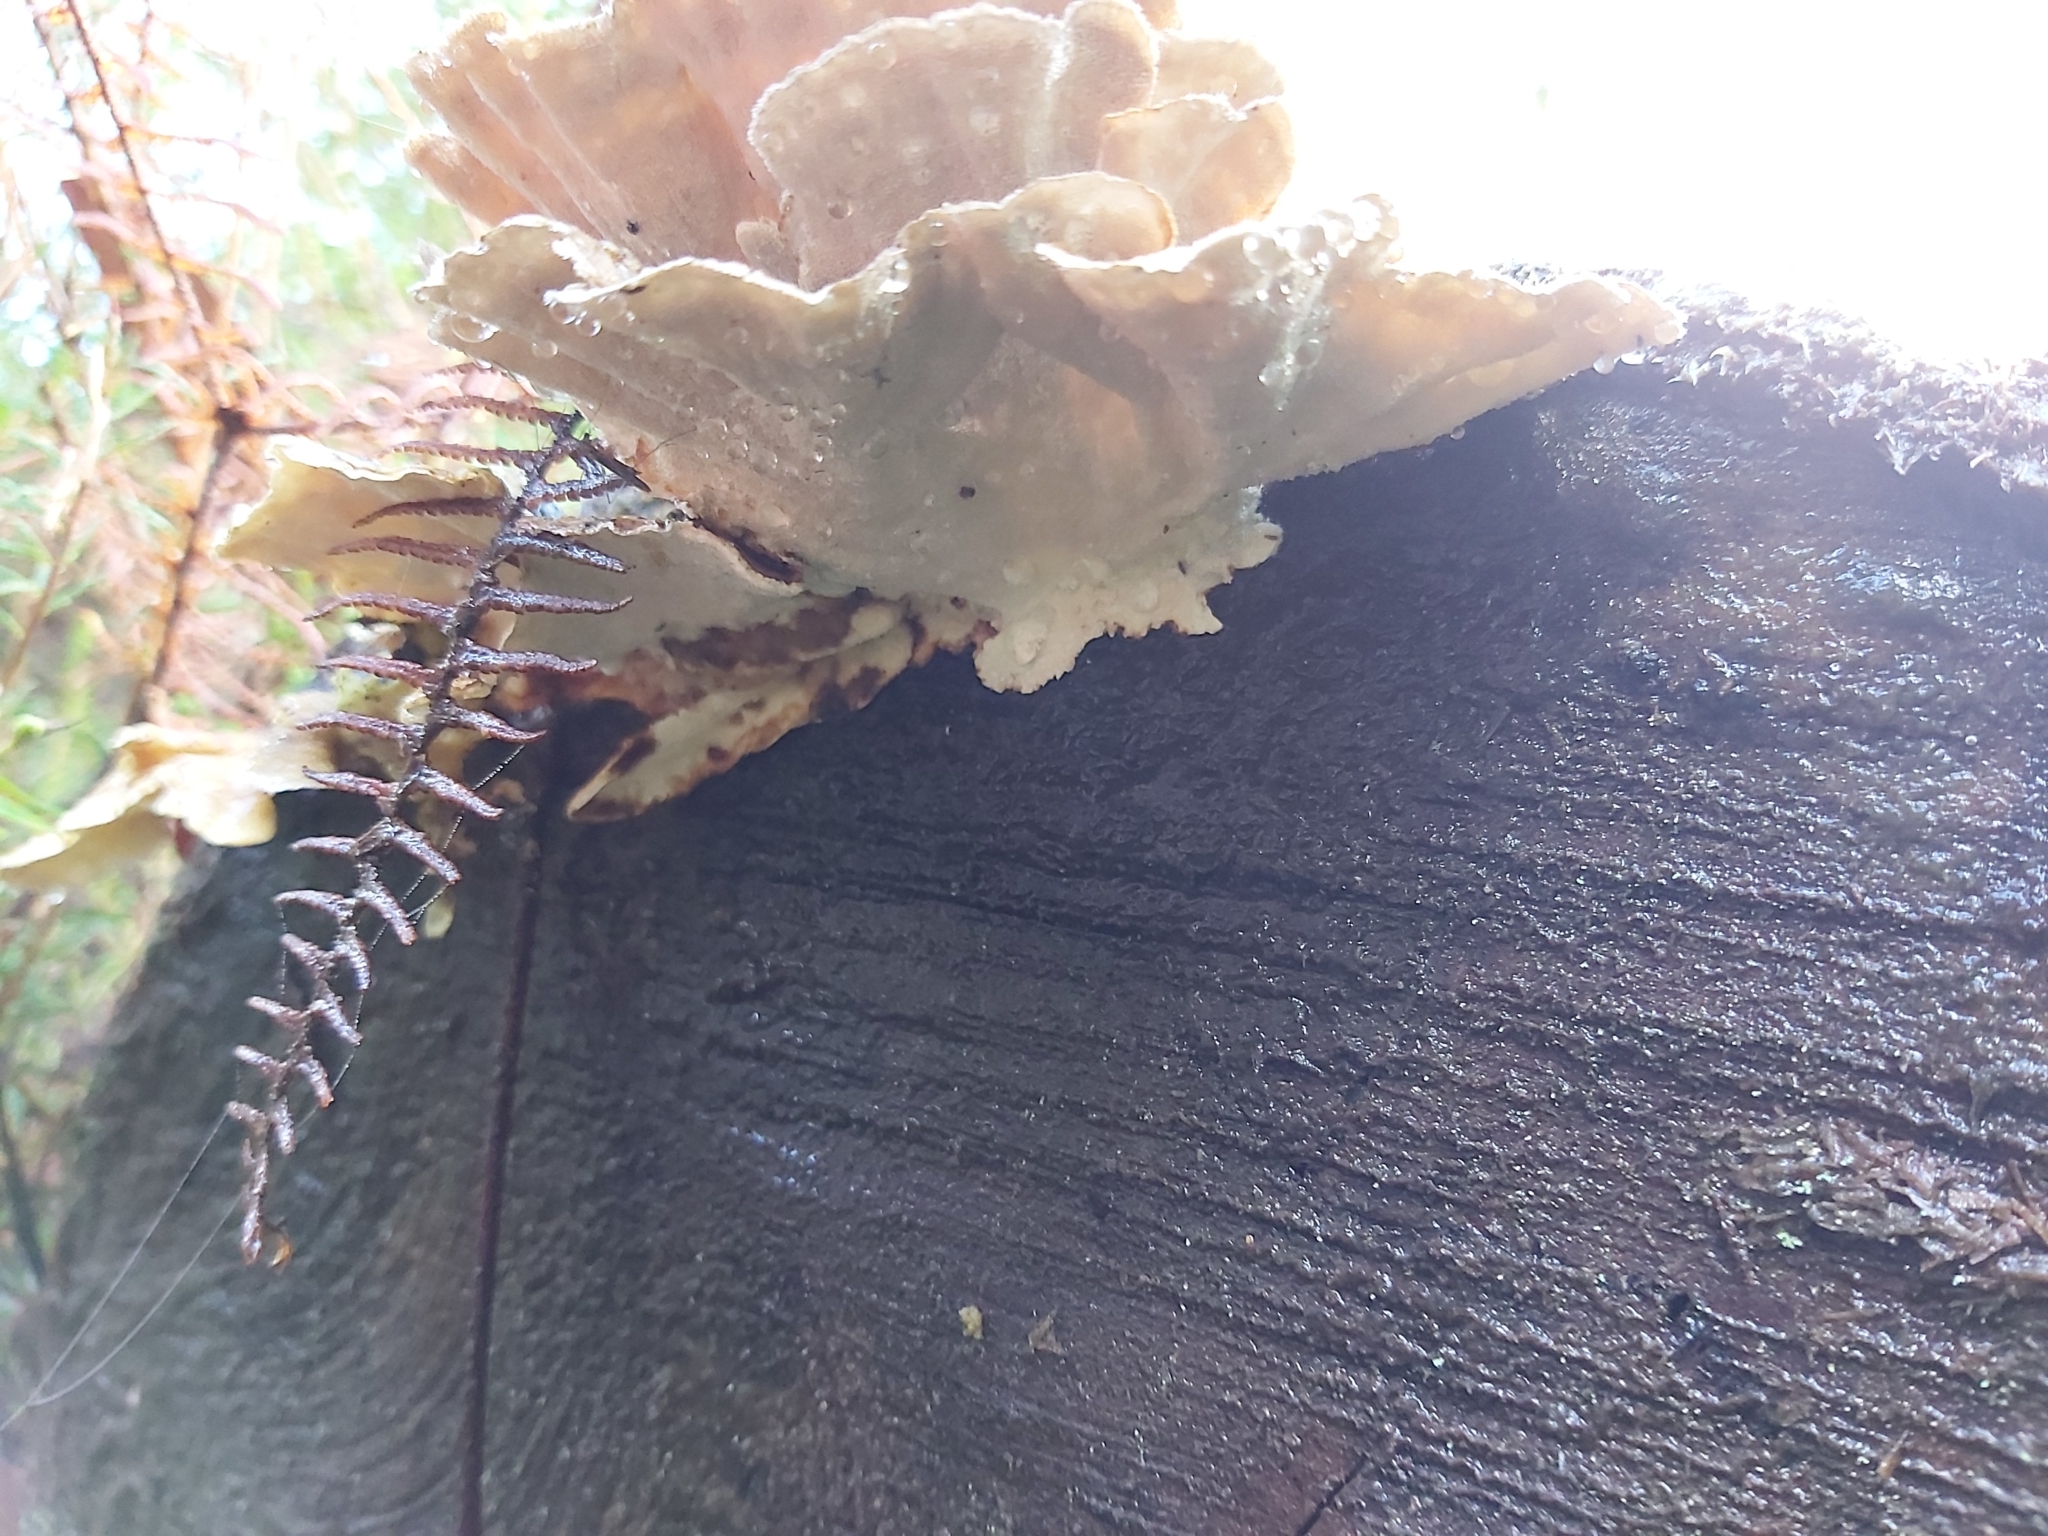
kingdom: Fungi
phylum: Basidiomycota
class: Agaricomycetes
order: Polyporales
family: Polyporaceae
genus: Trametes
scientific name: Trametes versicolor
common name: Turkeytail
